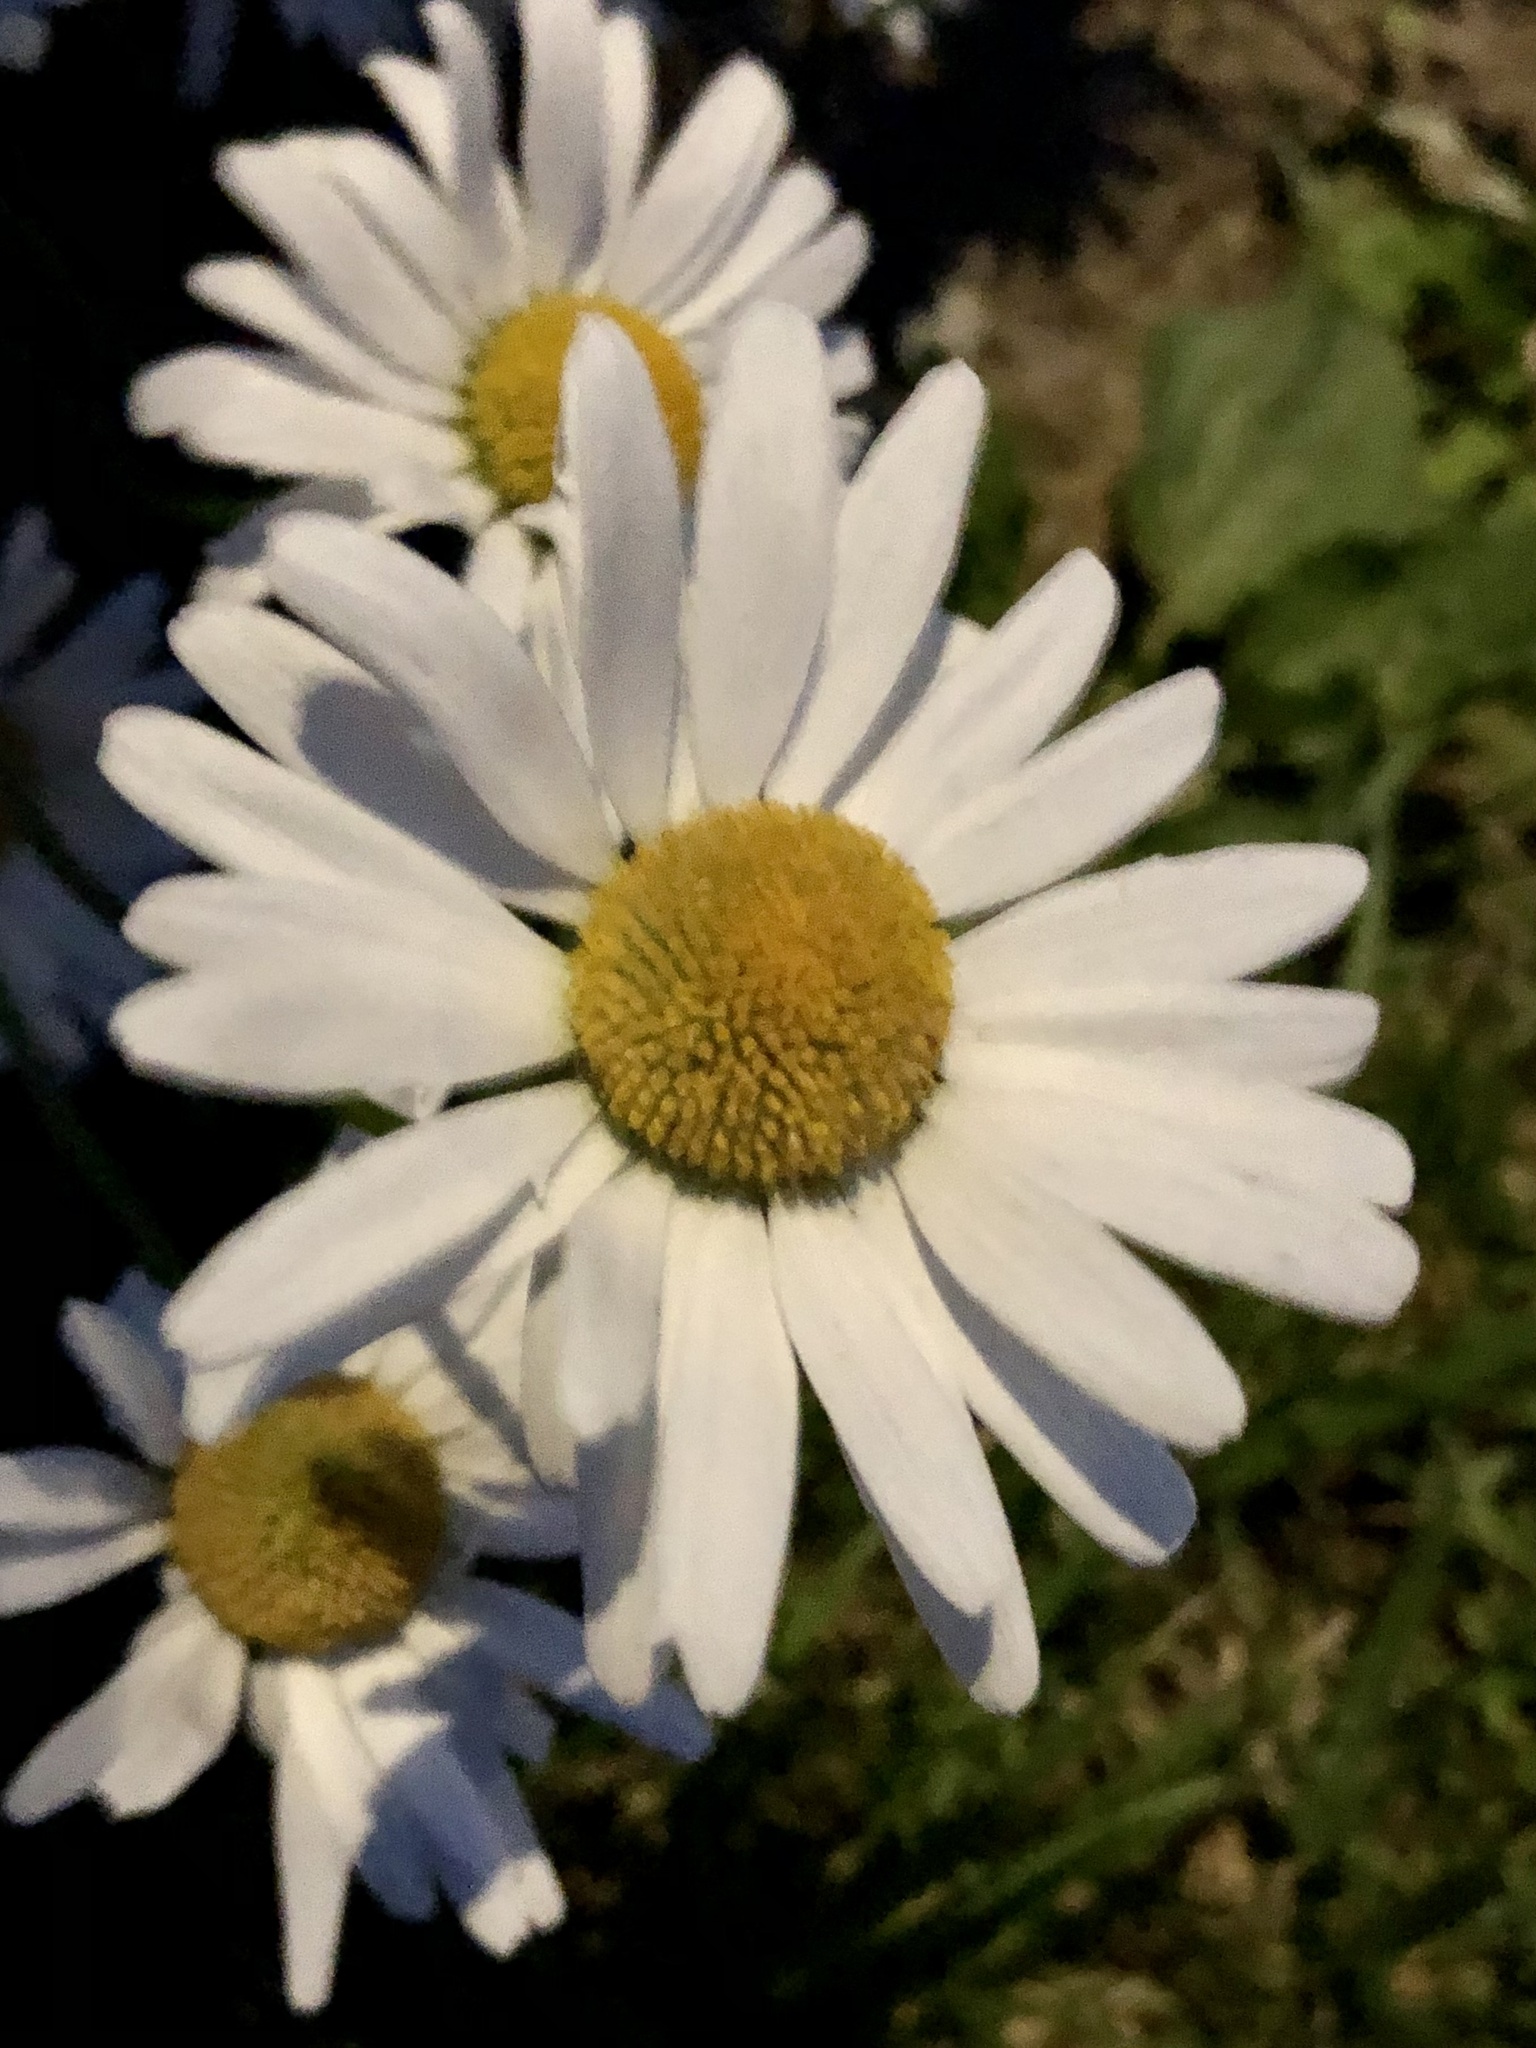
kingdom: Plantae
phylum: Tracheophyta
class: Magnoliopsida
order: Asterales
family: Asteraceae
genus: Leucanthemum
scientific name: Leucanthemum vulgare
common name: Oxeye daisy
